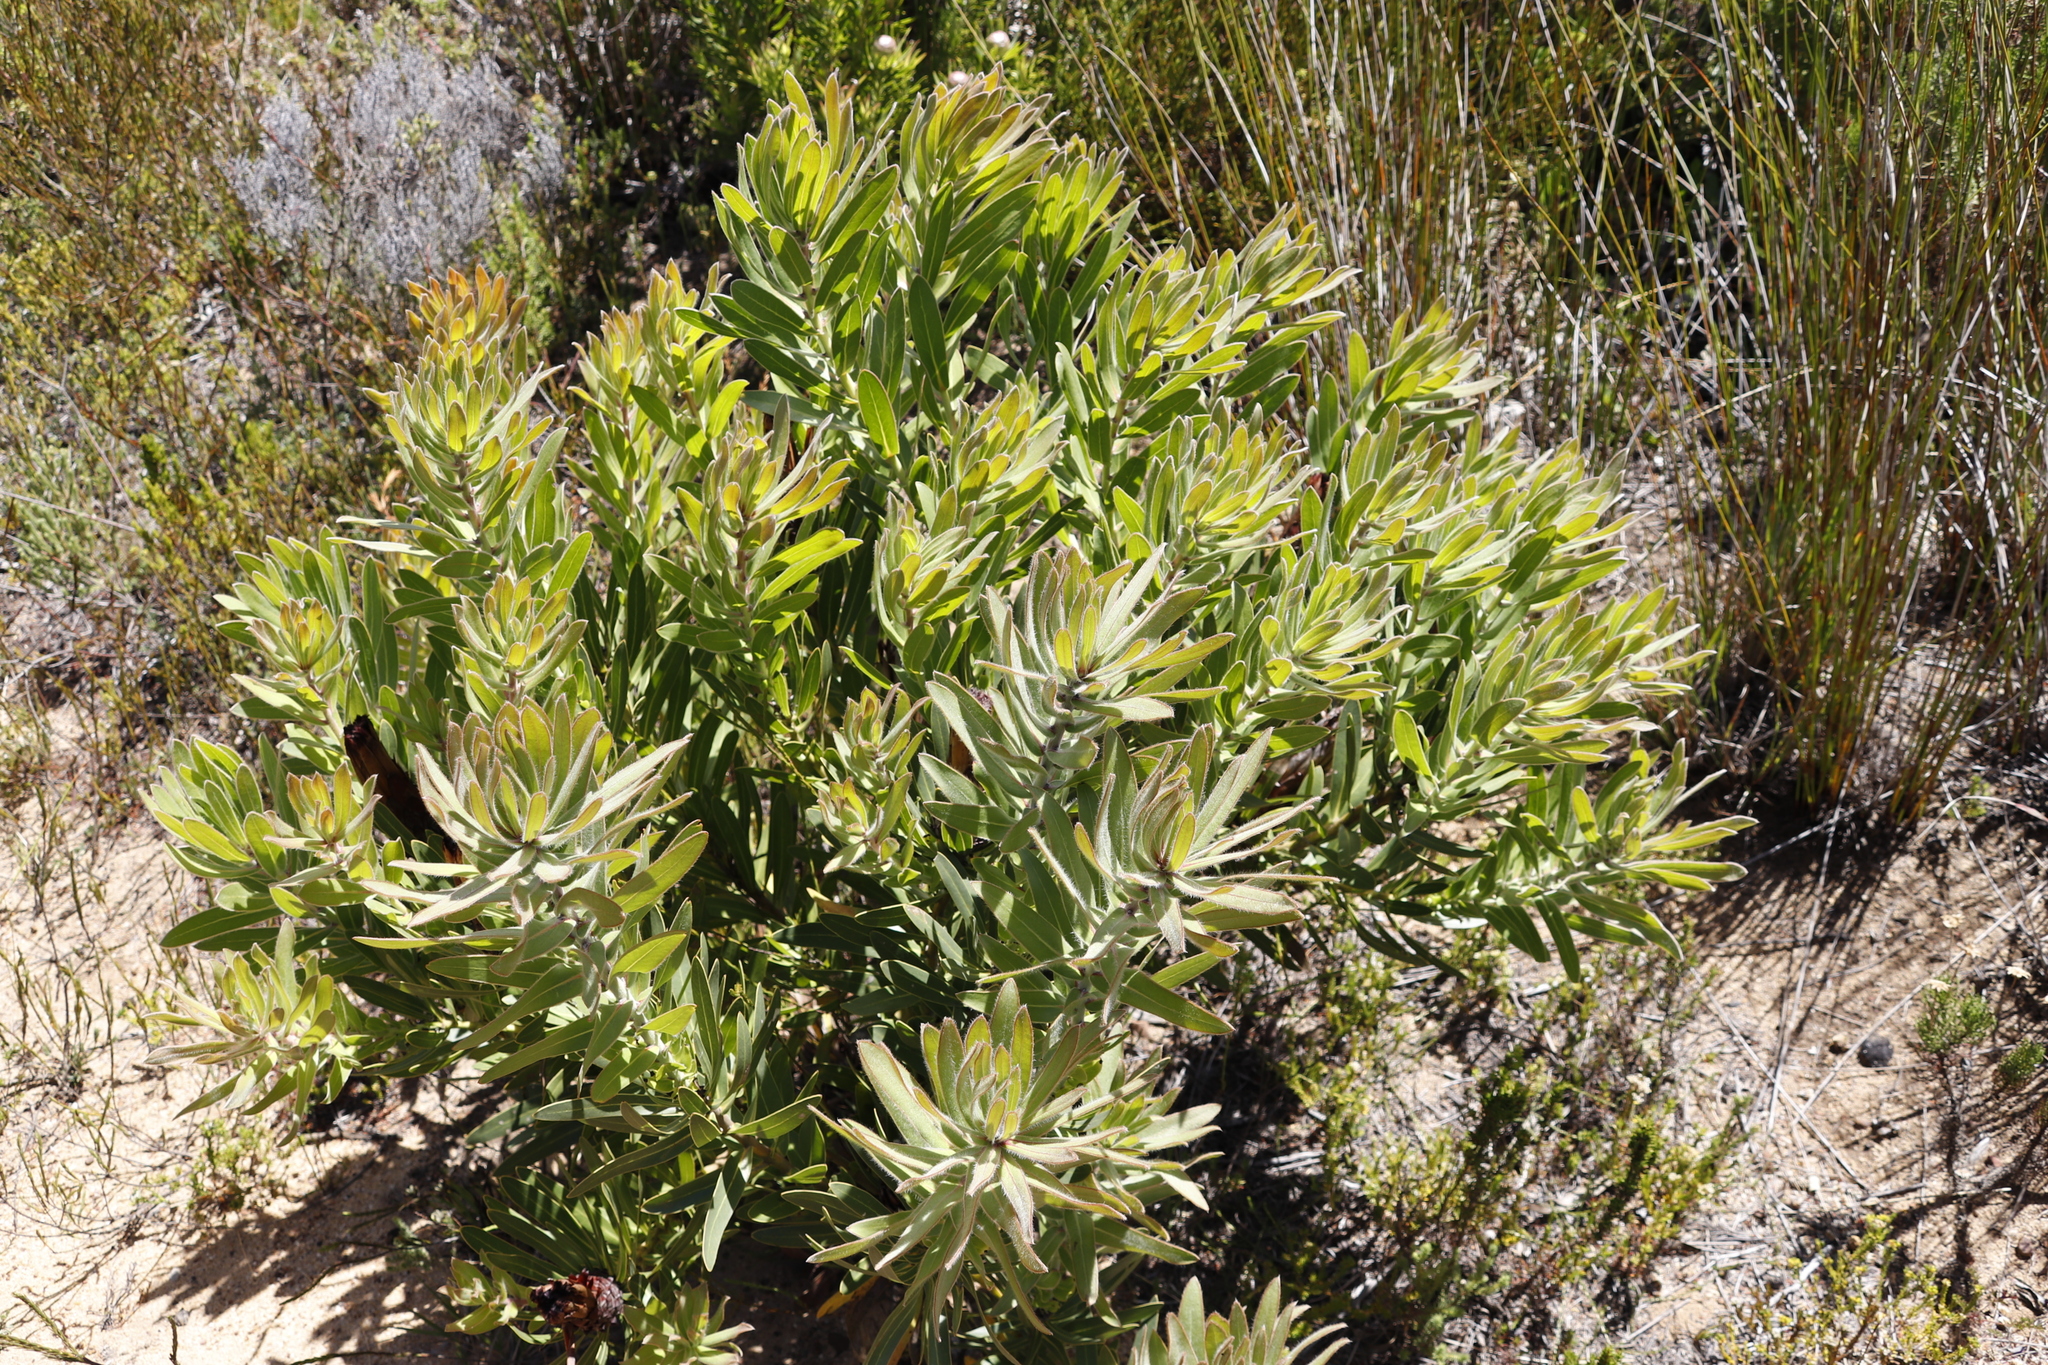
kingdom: Plantae
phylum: Tracheophyta
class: Magnoliopsida
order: Proteales
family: Proteaceae
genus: Protea
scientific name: Protea lepidocarpodendron
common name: Black-bearded protea
